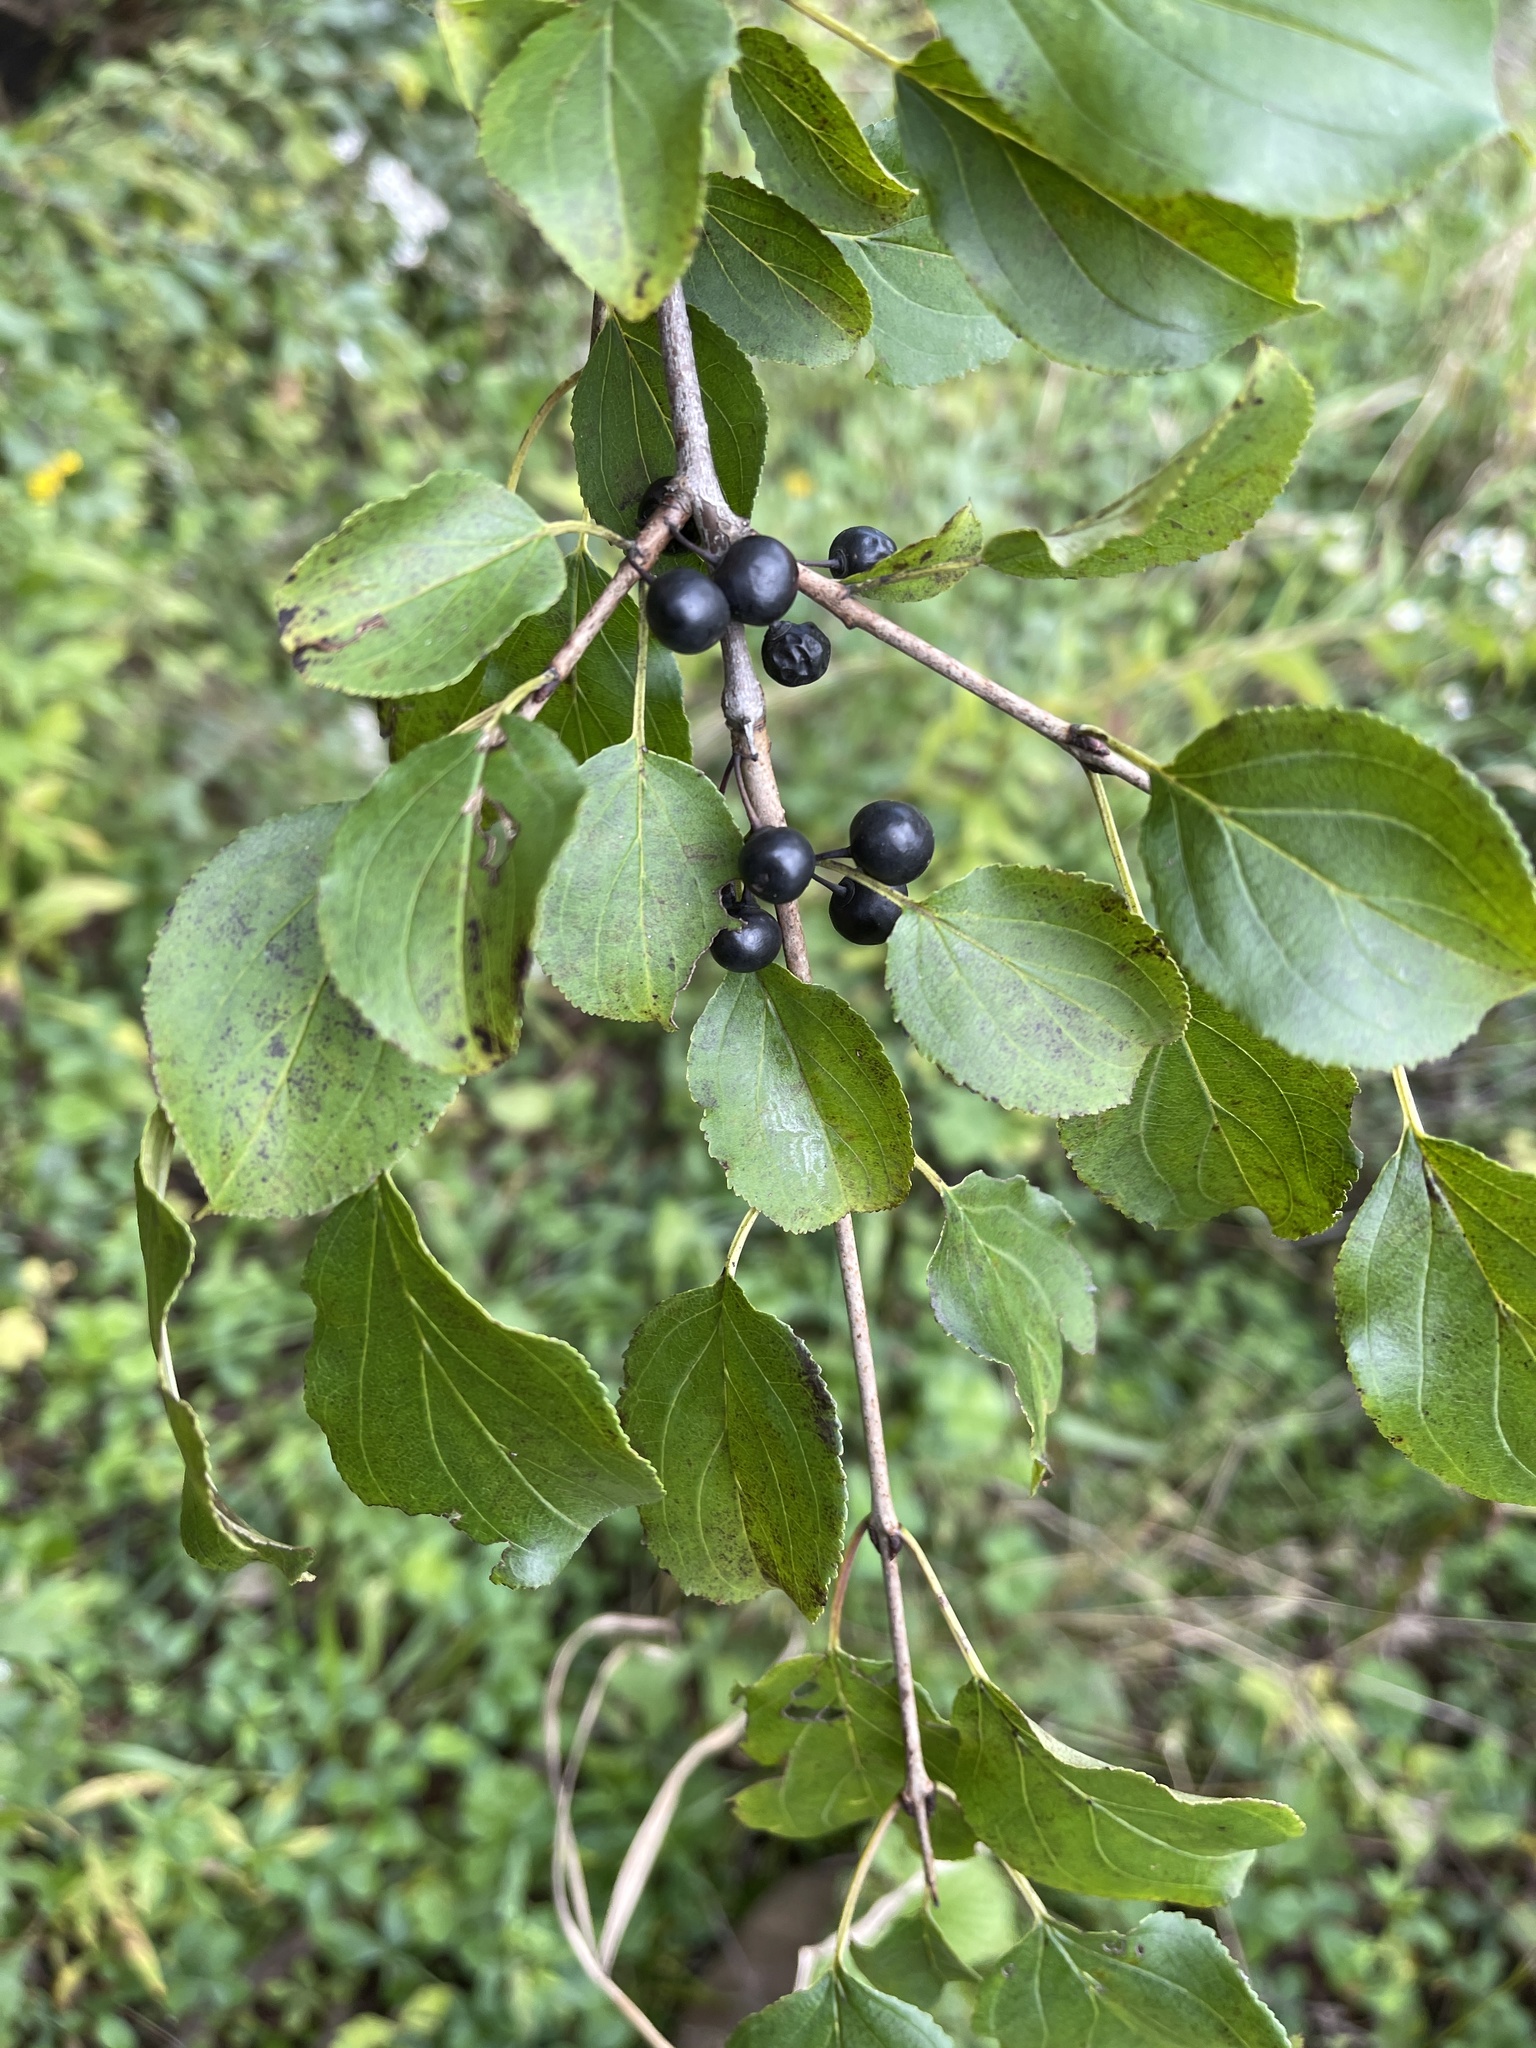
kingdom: Plantae
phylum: Tracheophyta
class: Magnoliopsida
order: Rosales
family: Rhamnaceae
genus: Rhamnus
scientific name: Rhamnus cathartica
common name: Common buckthorn
